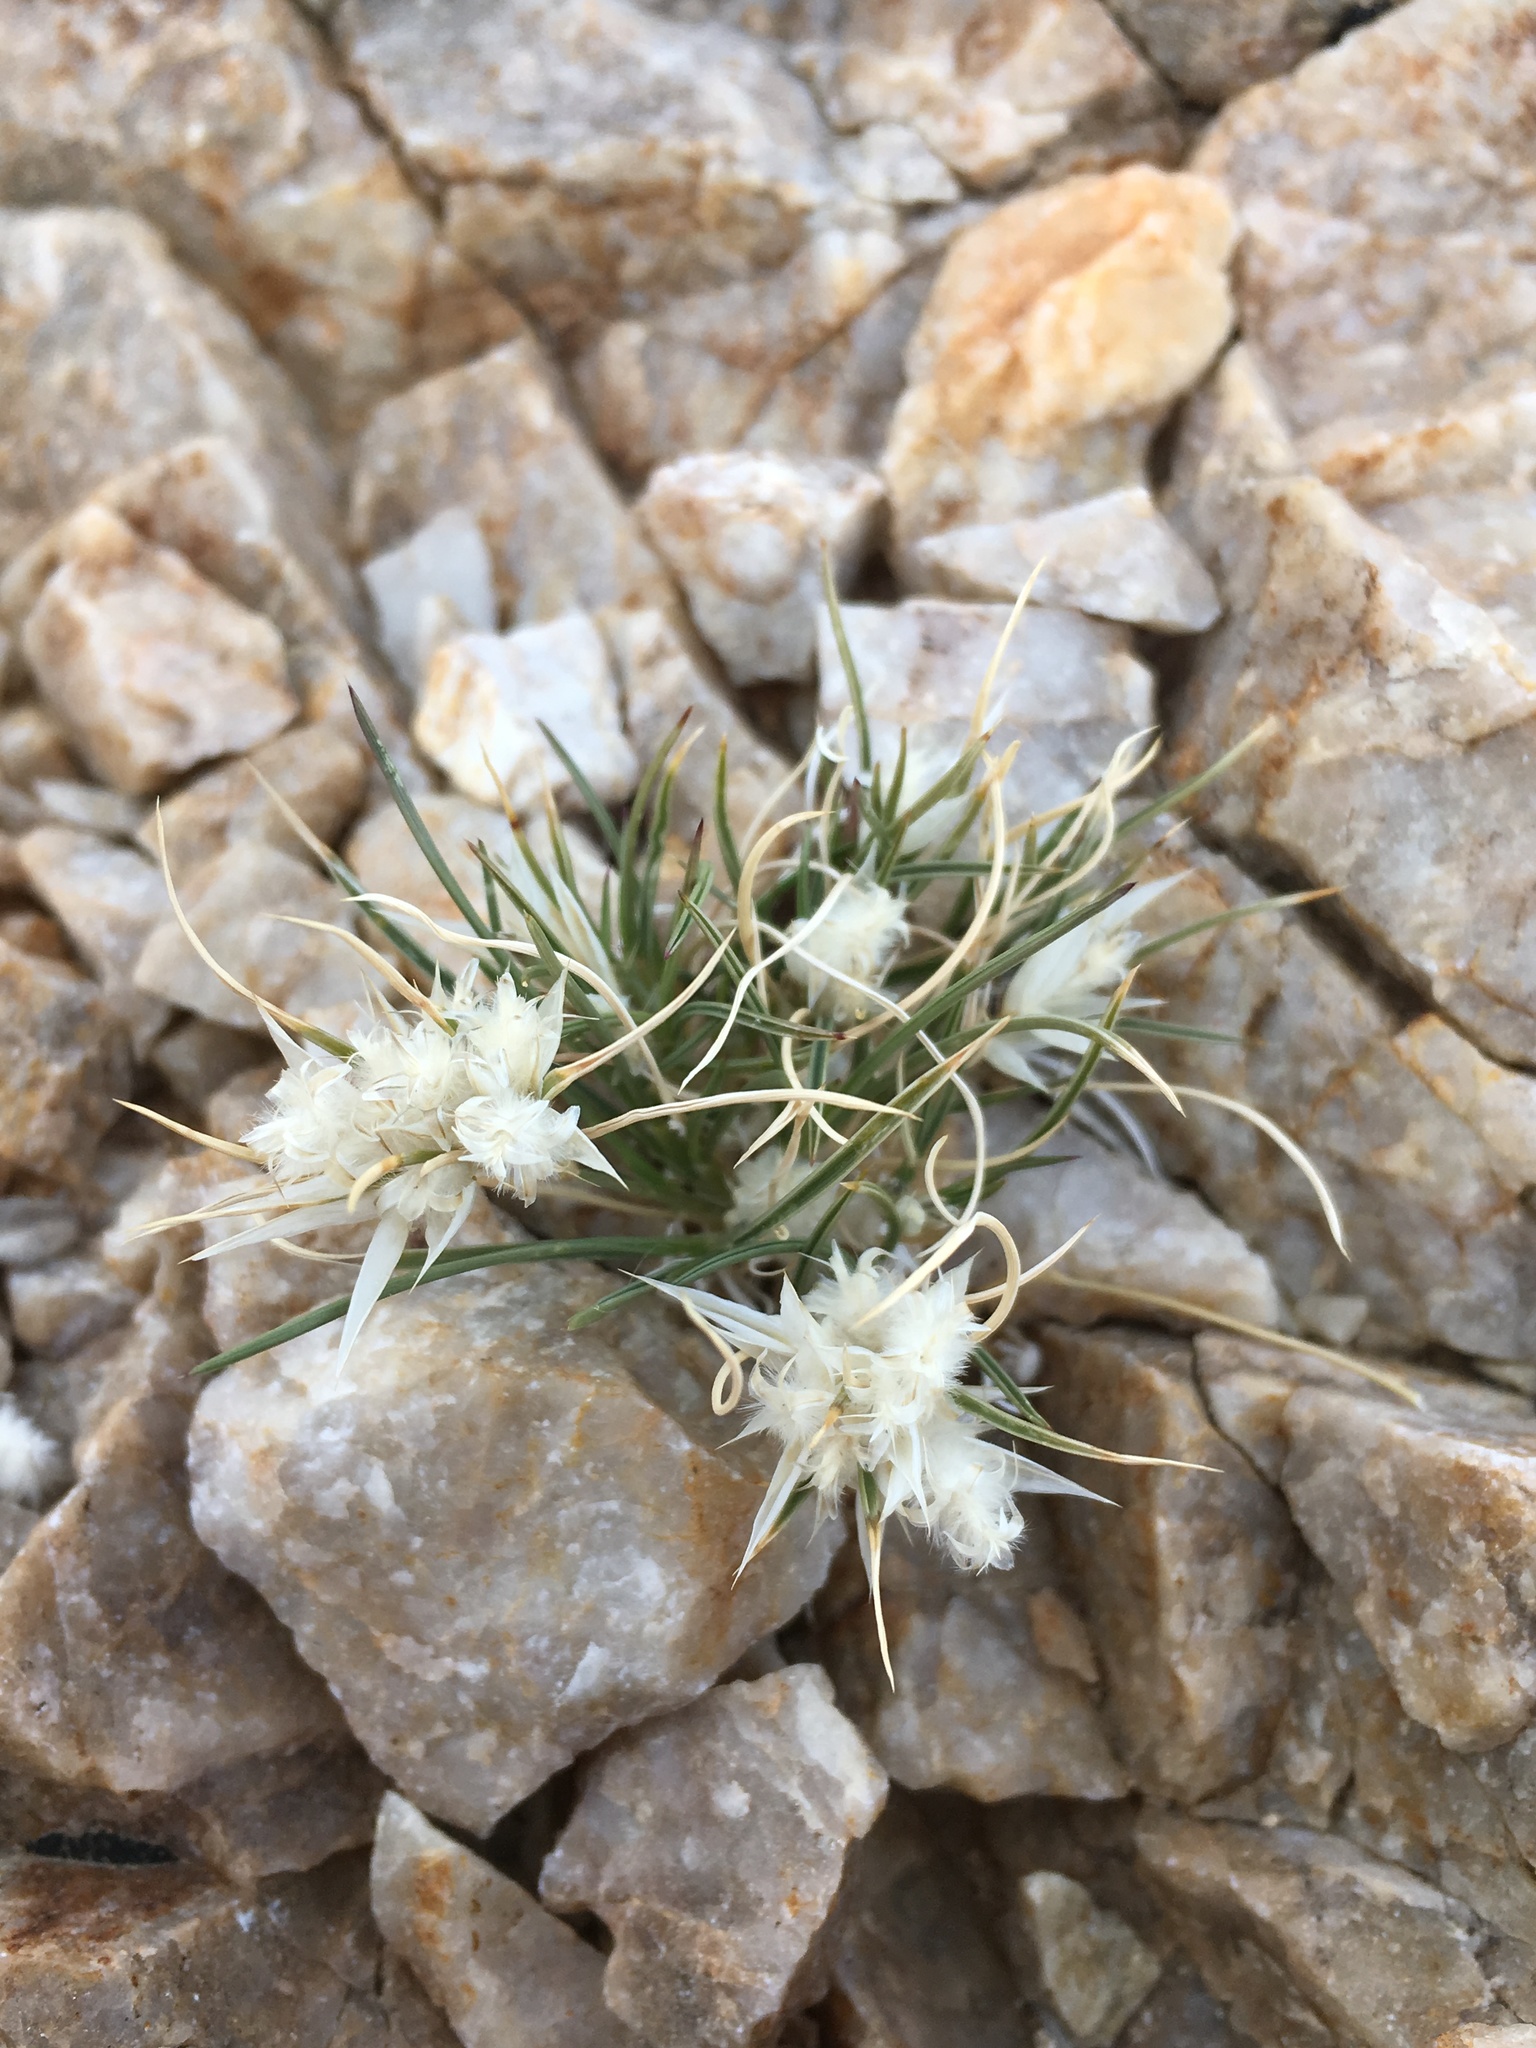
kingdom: Plantae
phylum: Tracheophyta
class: Liliopsida
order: Poales
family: Poaceae
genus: Dasyochloa
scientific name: Dasyochloa pulchella
